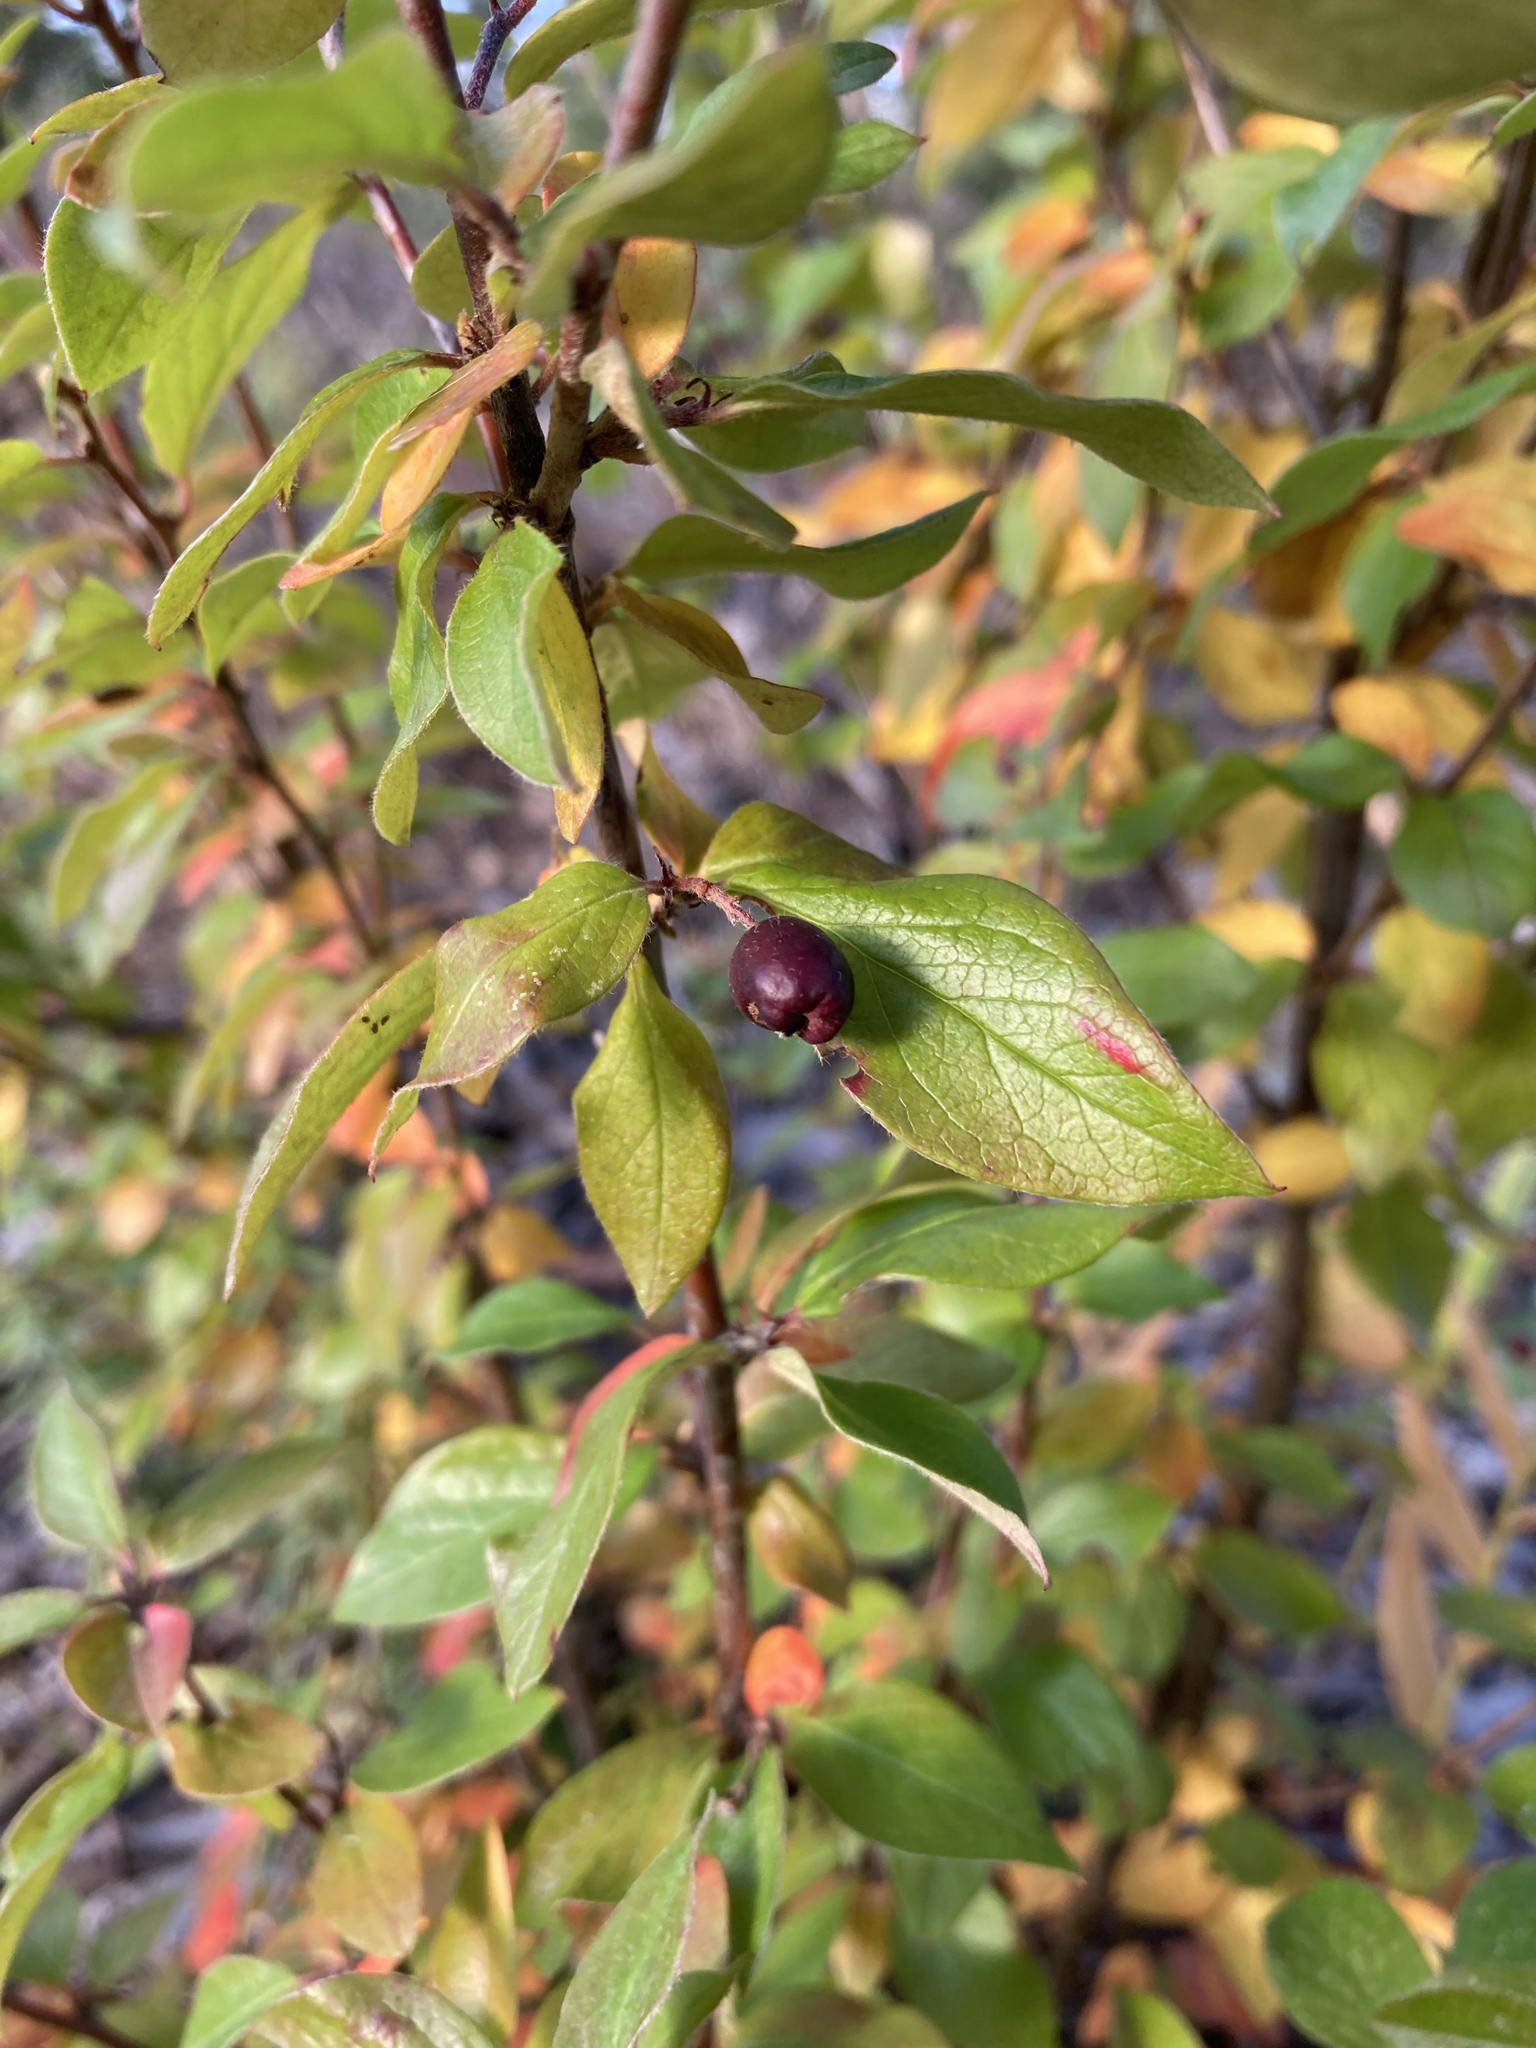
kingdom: Plantae
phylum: Tracheophyta
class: Magnoliopsida
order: Rosales
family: Rosaceae
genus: Cotoneaster
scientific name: Cotoneaster acutifolius
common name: Peking cotoneaster
